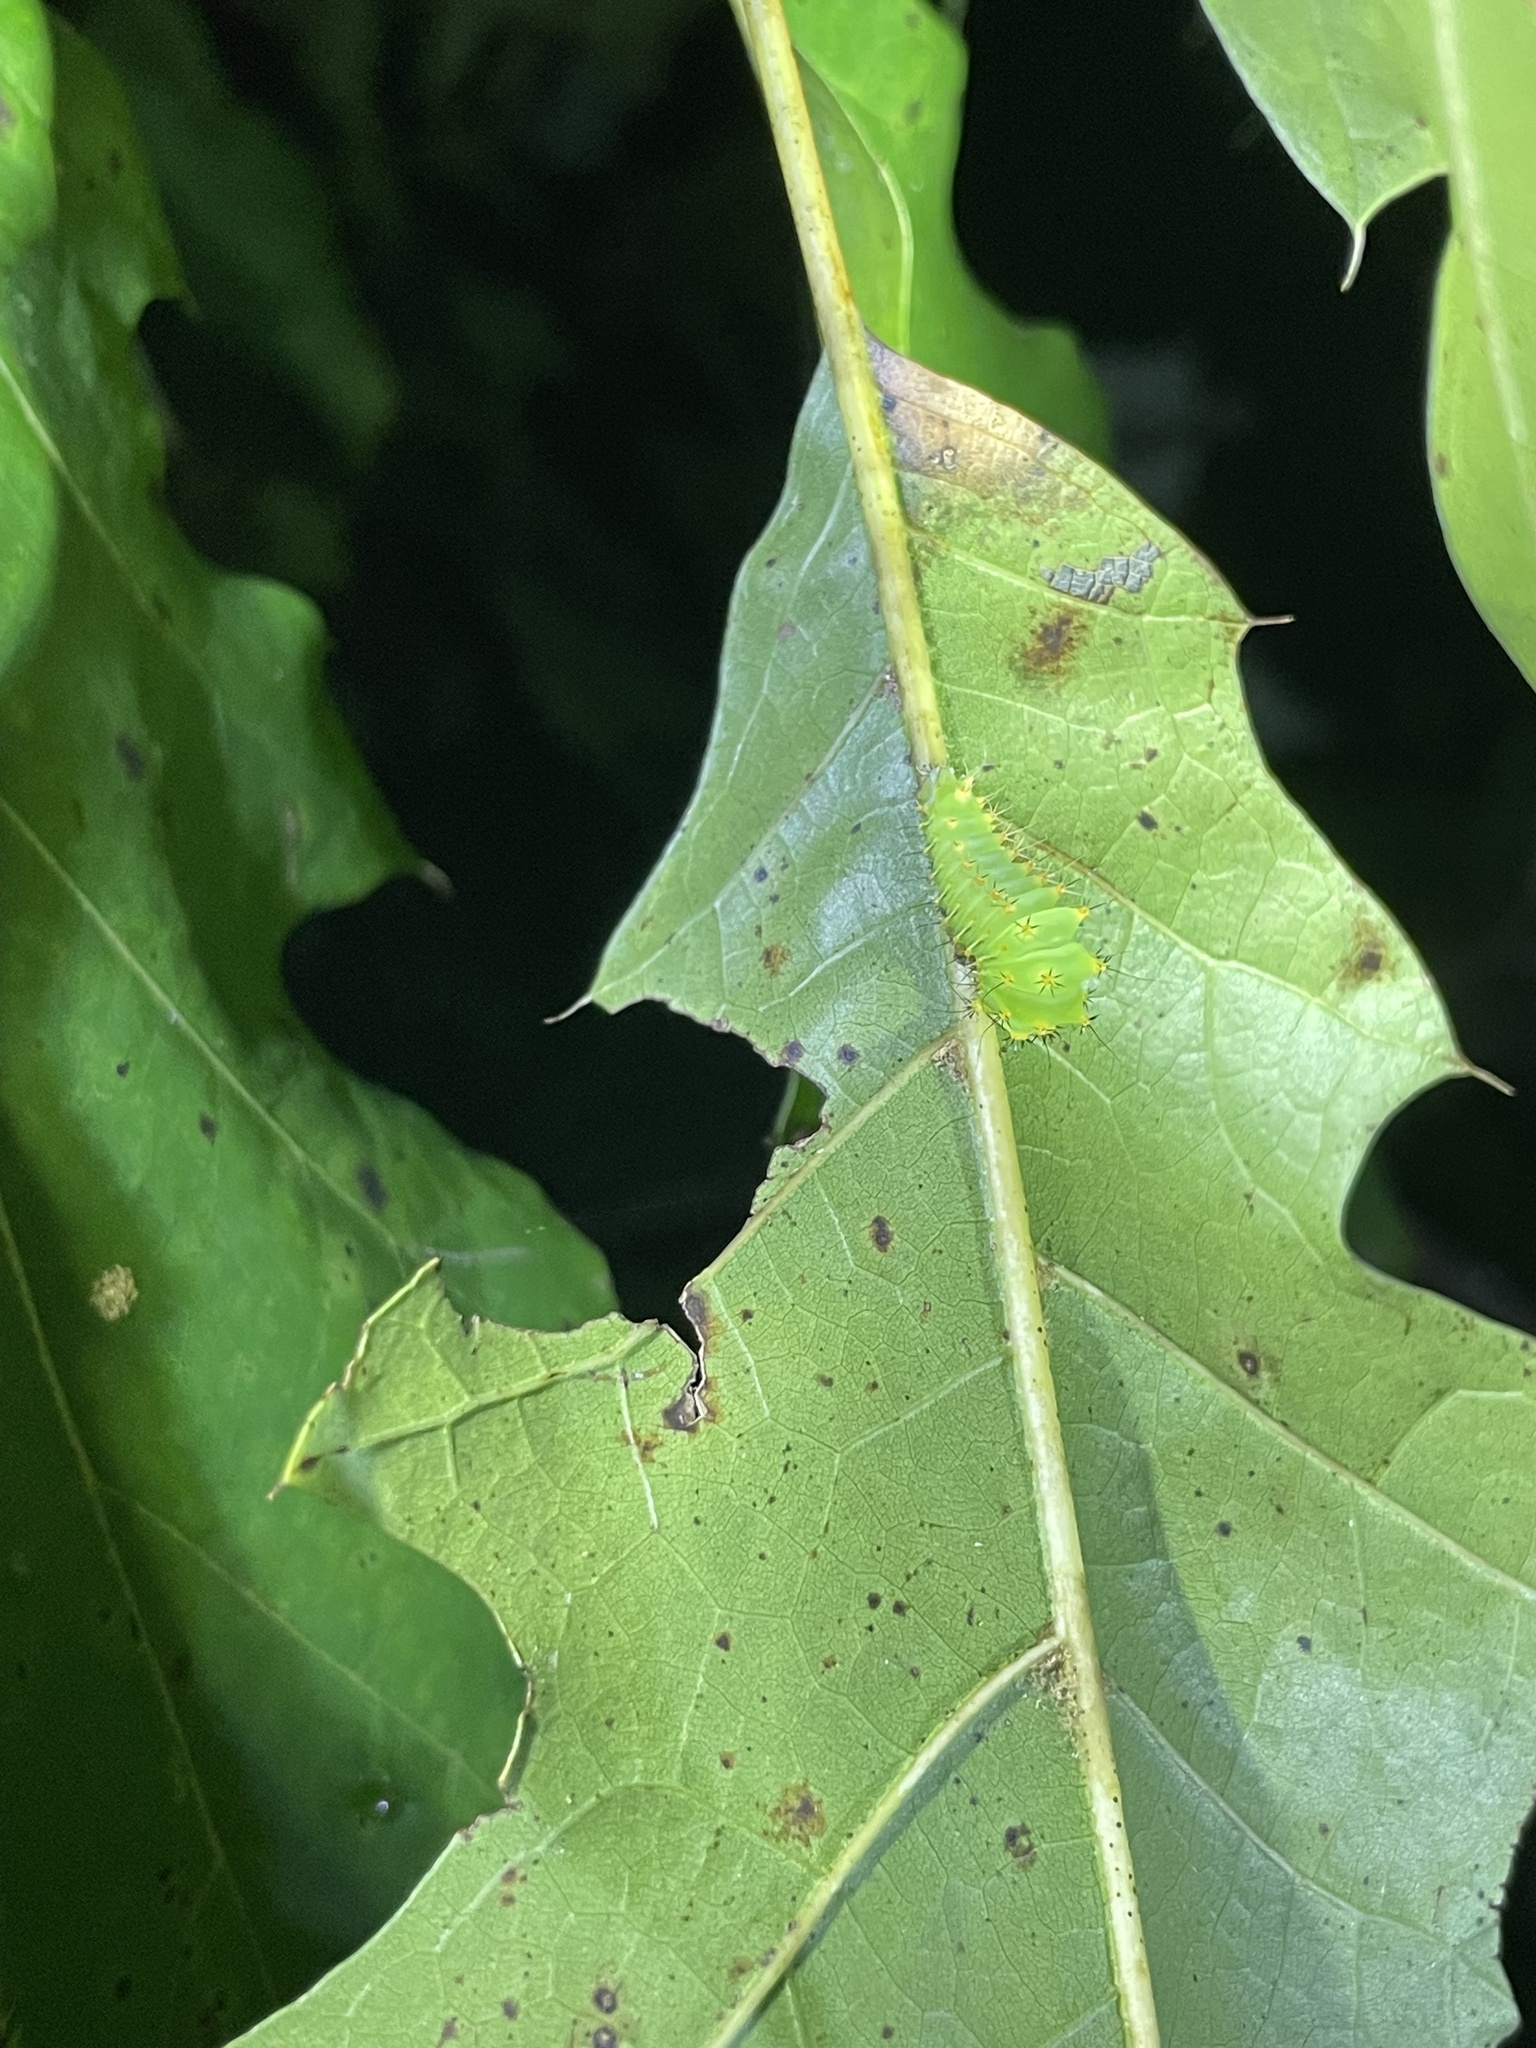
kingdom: Animalia
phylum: Arthropoda
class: Insecta
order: Lepidoptera
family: Saturniidae
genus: Antheraea
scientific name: Antheraea polyphemus
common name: Polyphemus moth
